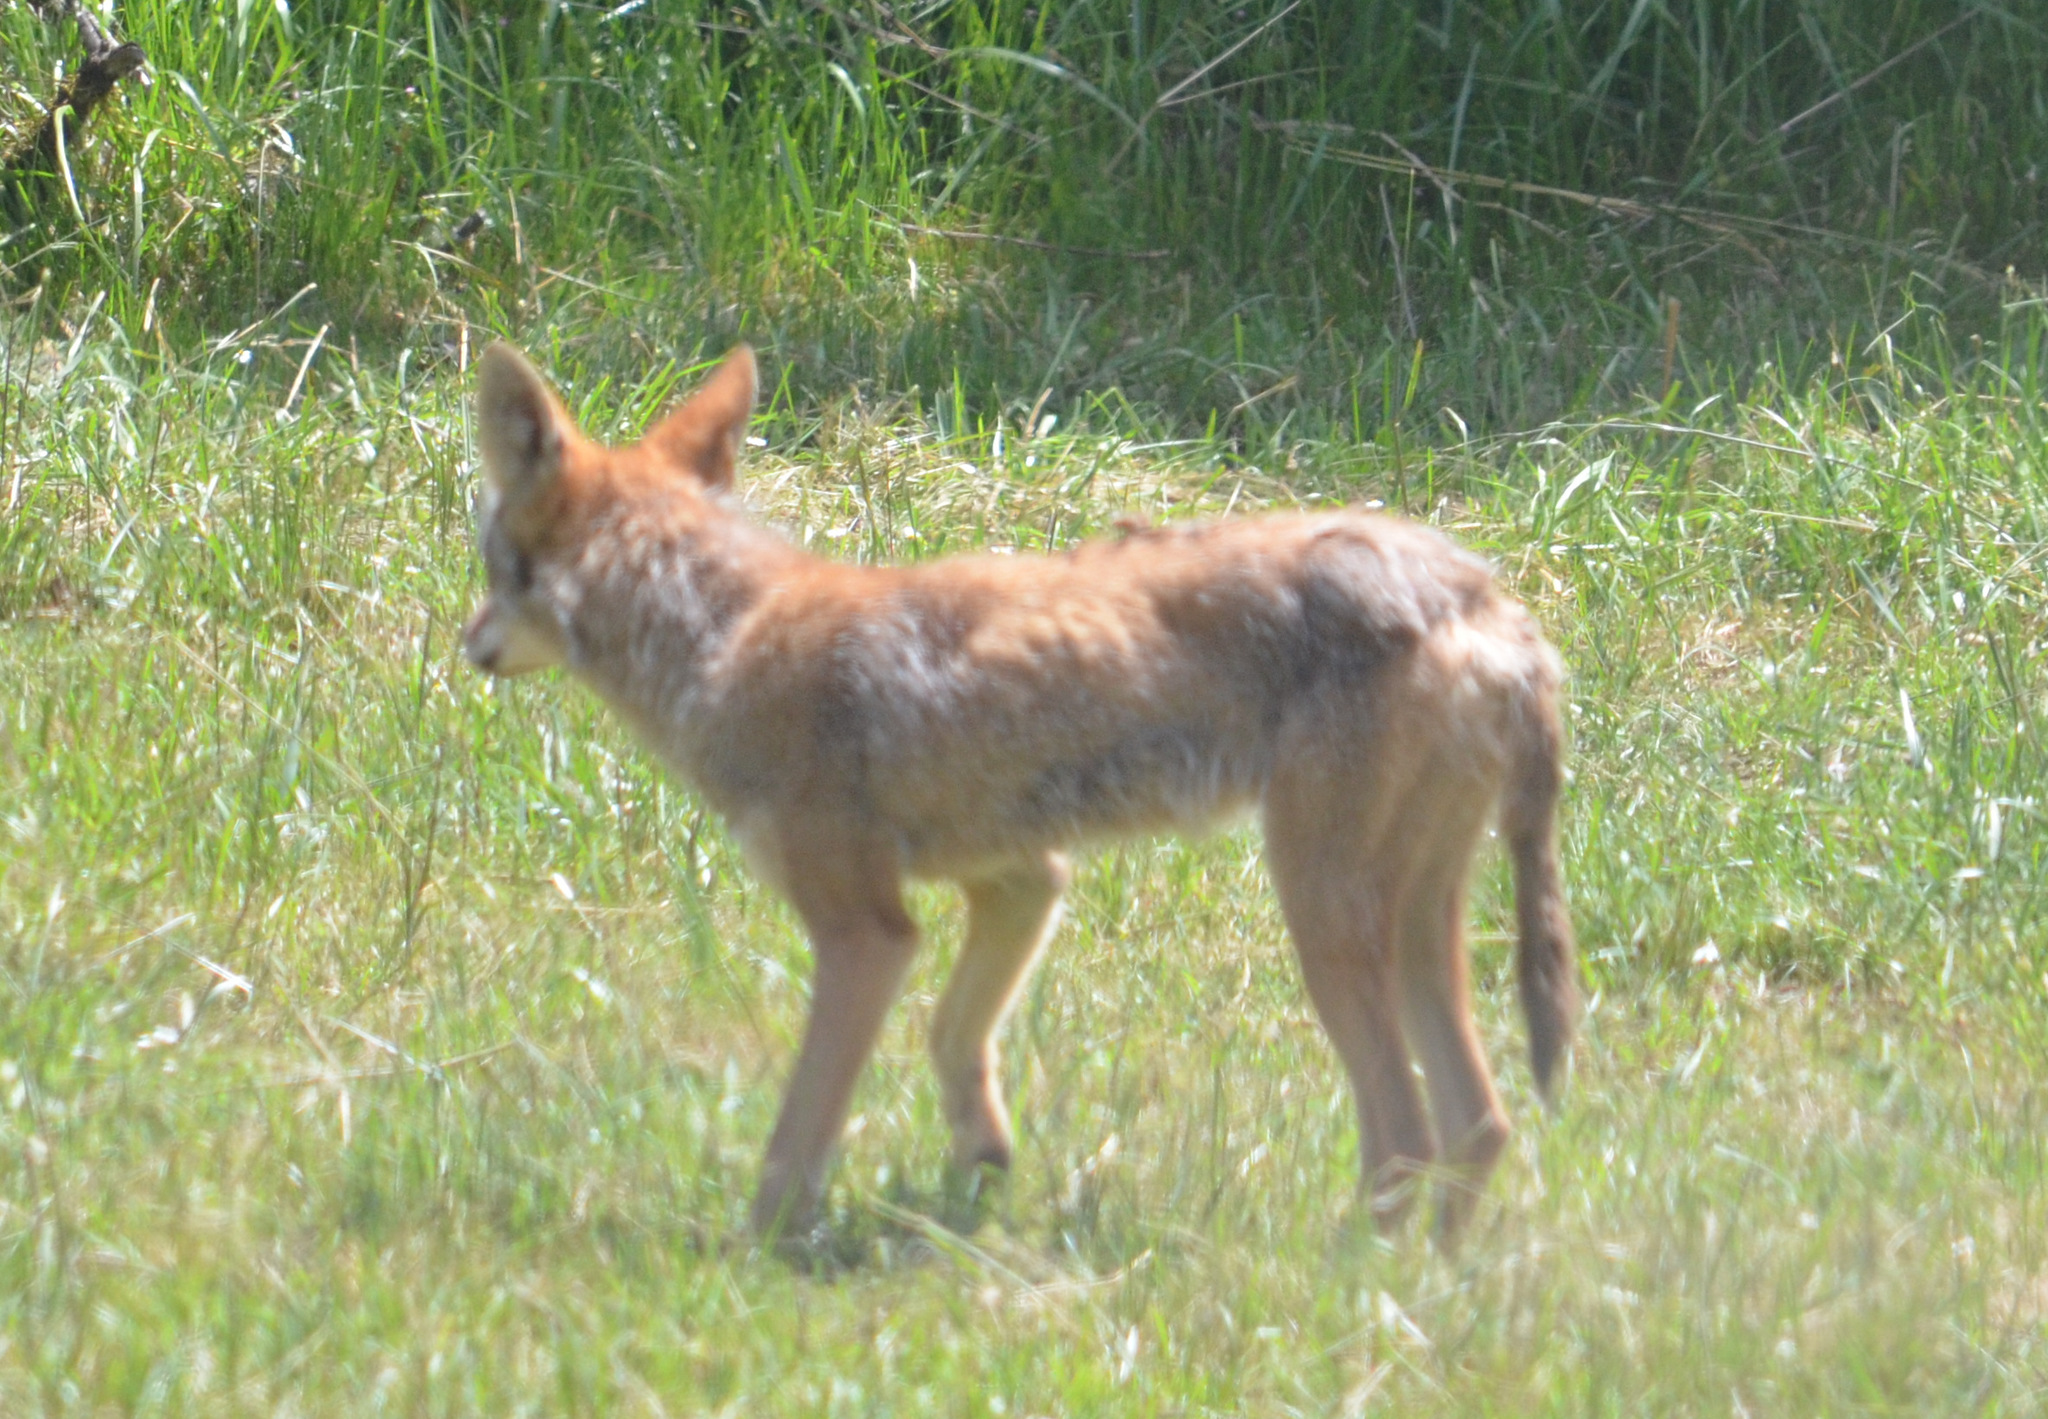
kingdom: Animalia
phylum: Chordata
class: Mammalia
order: Carnivora
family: Canidae
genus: Canis
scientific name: Canis latrans
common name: Coyote
